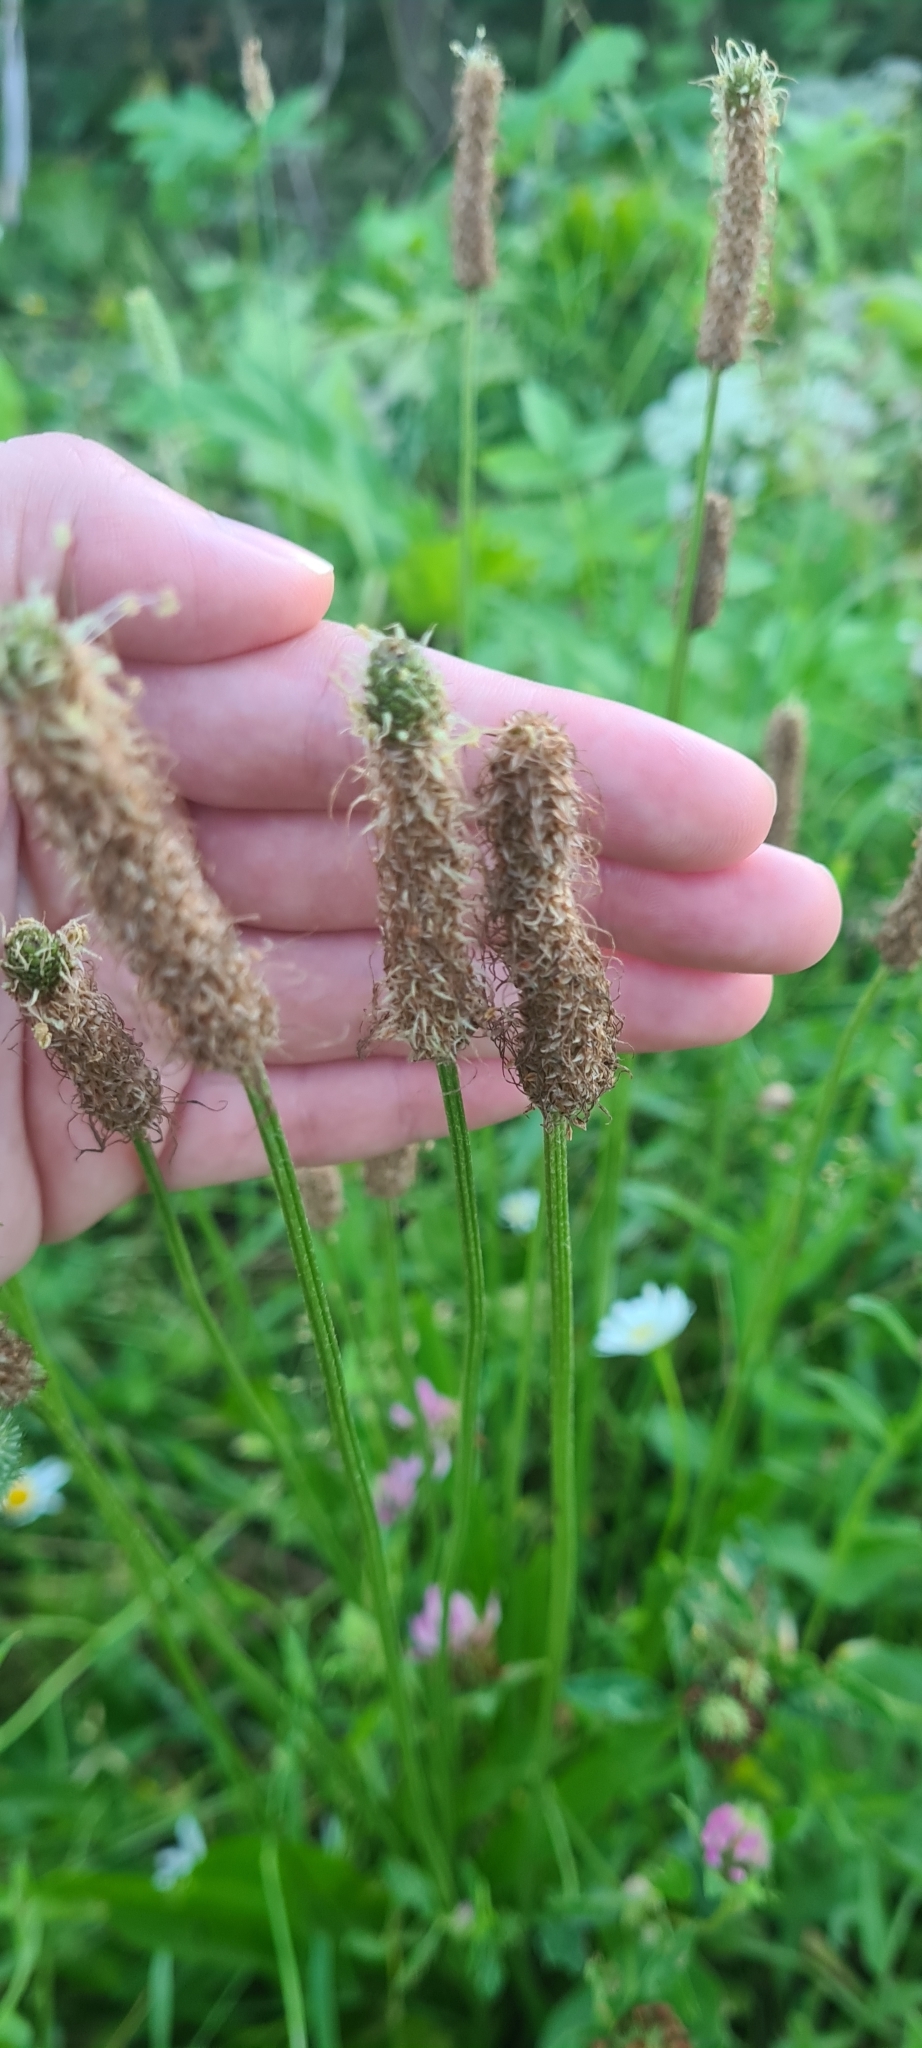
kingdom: Plantae
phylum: Tracheophyta
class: Magnoliopsida
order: Lamiales
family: Plantaginaceae
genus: Plantago
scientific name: Plantago lanceolata
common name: Ribwort plantain
